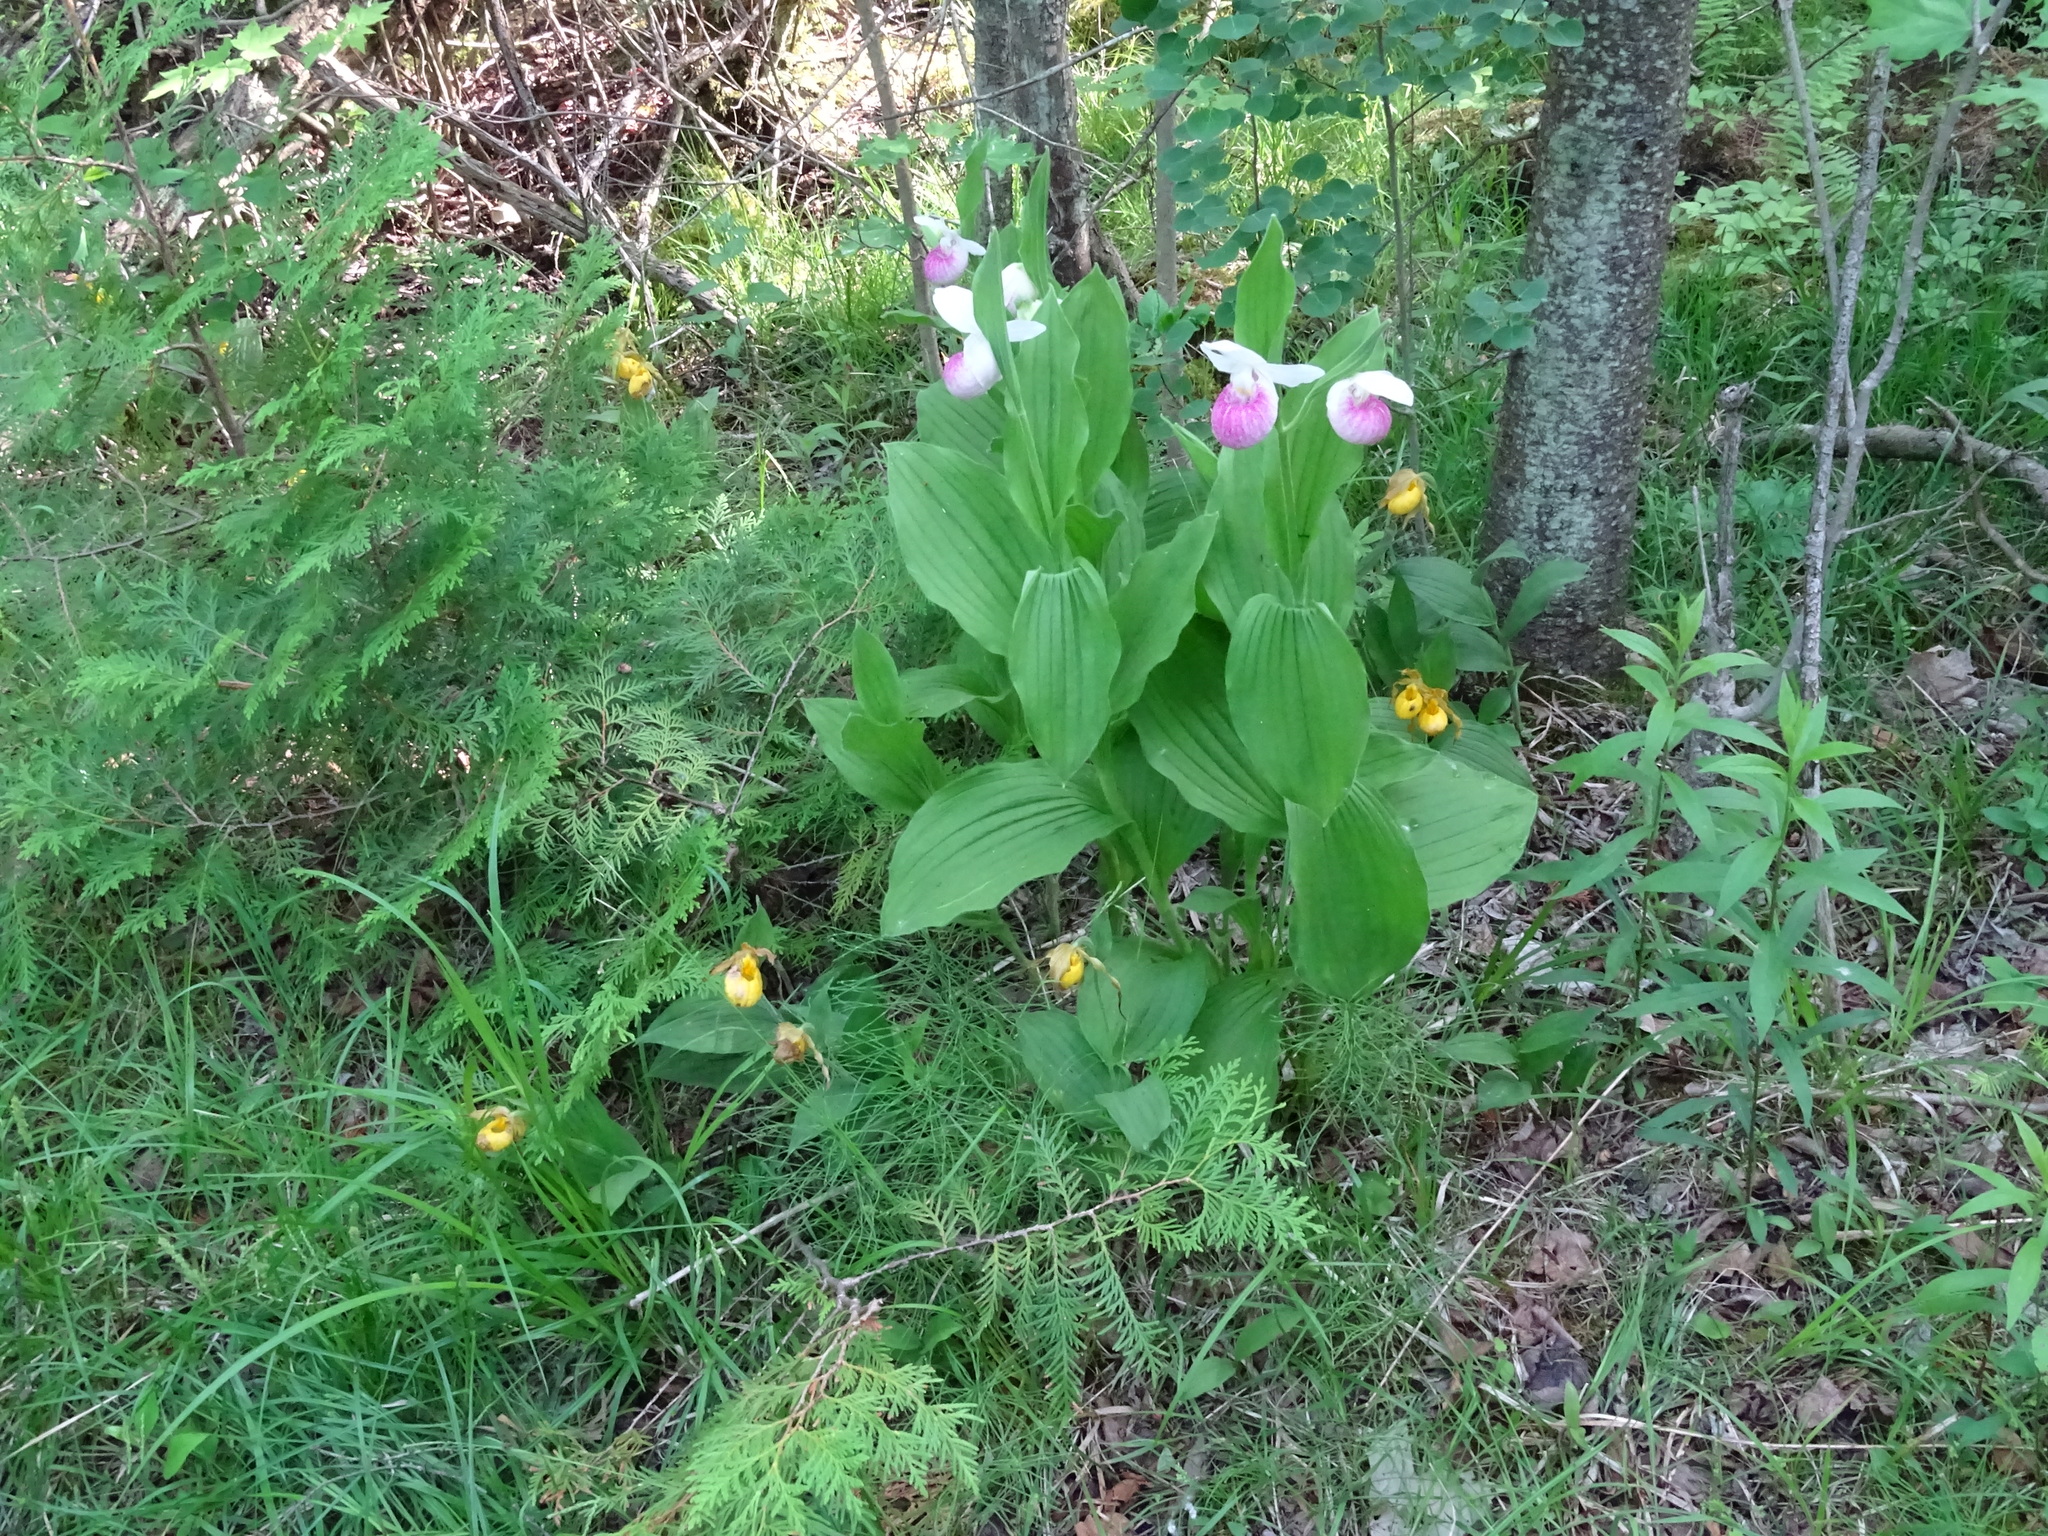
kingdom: Plantae
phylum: Tracheophyta
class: Liliopsida
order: Asparagales
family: Orchidaceae
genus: Cypripedium
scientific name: Cypripedium reginae
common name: Queen lady's-slipper
